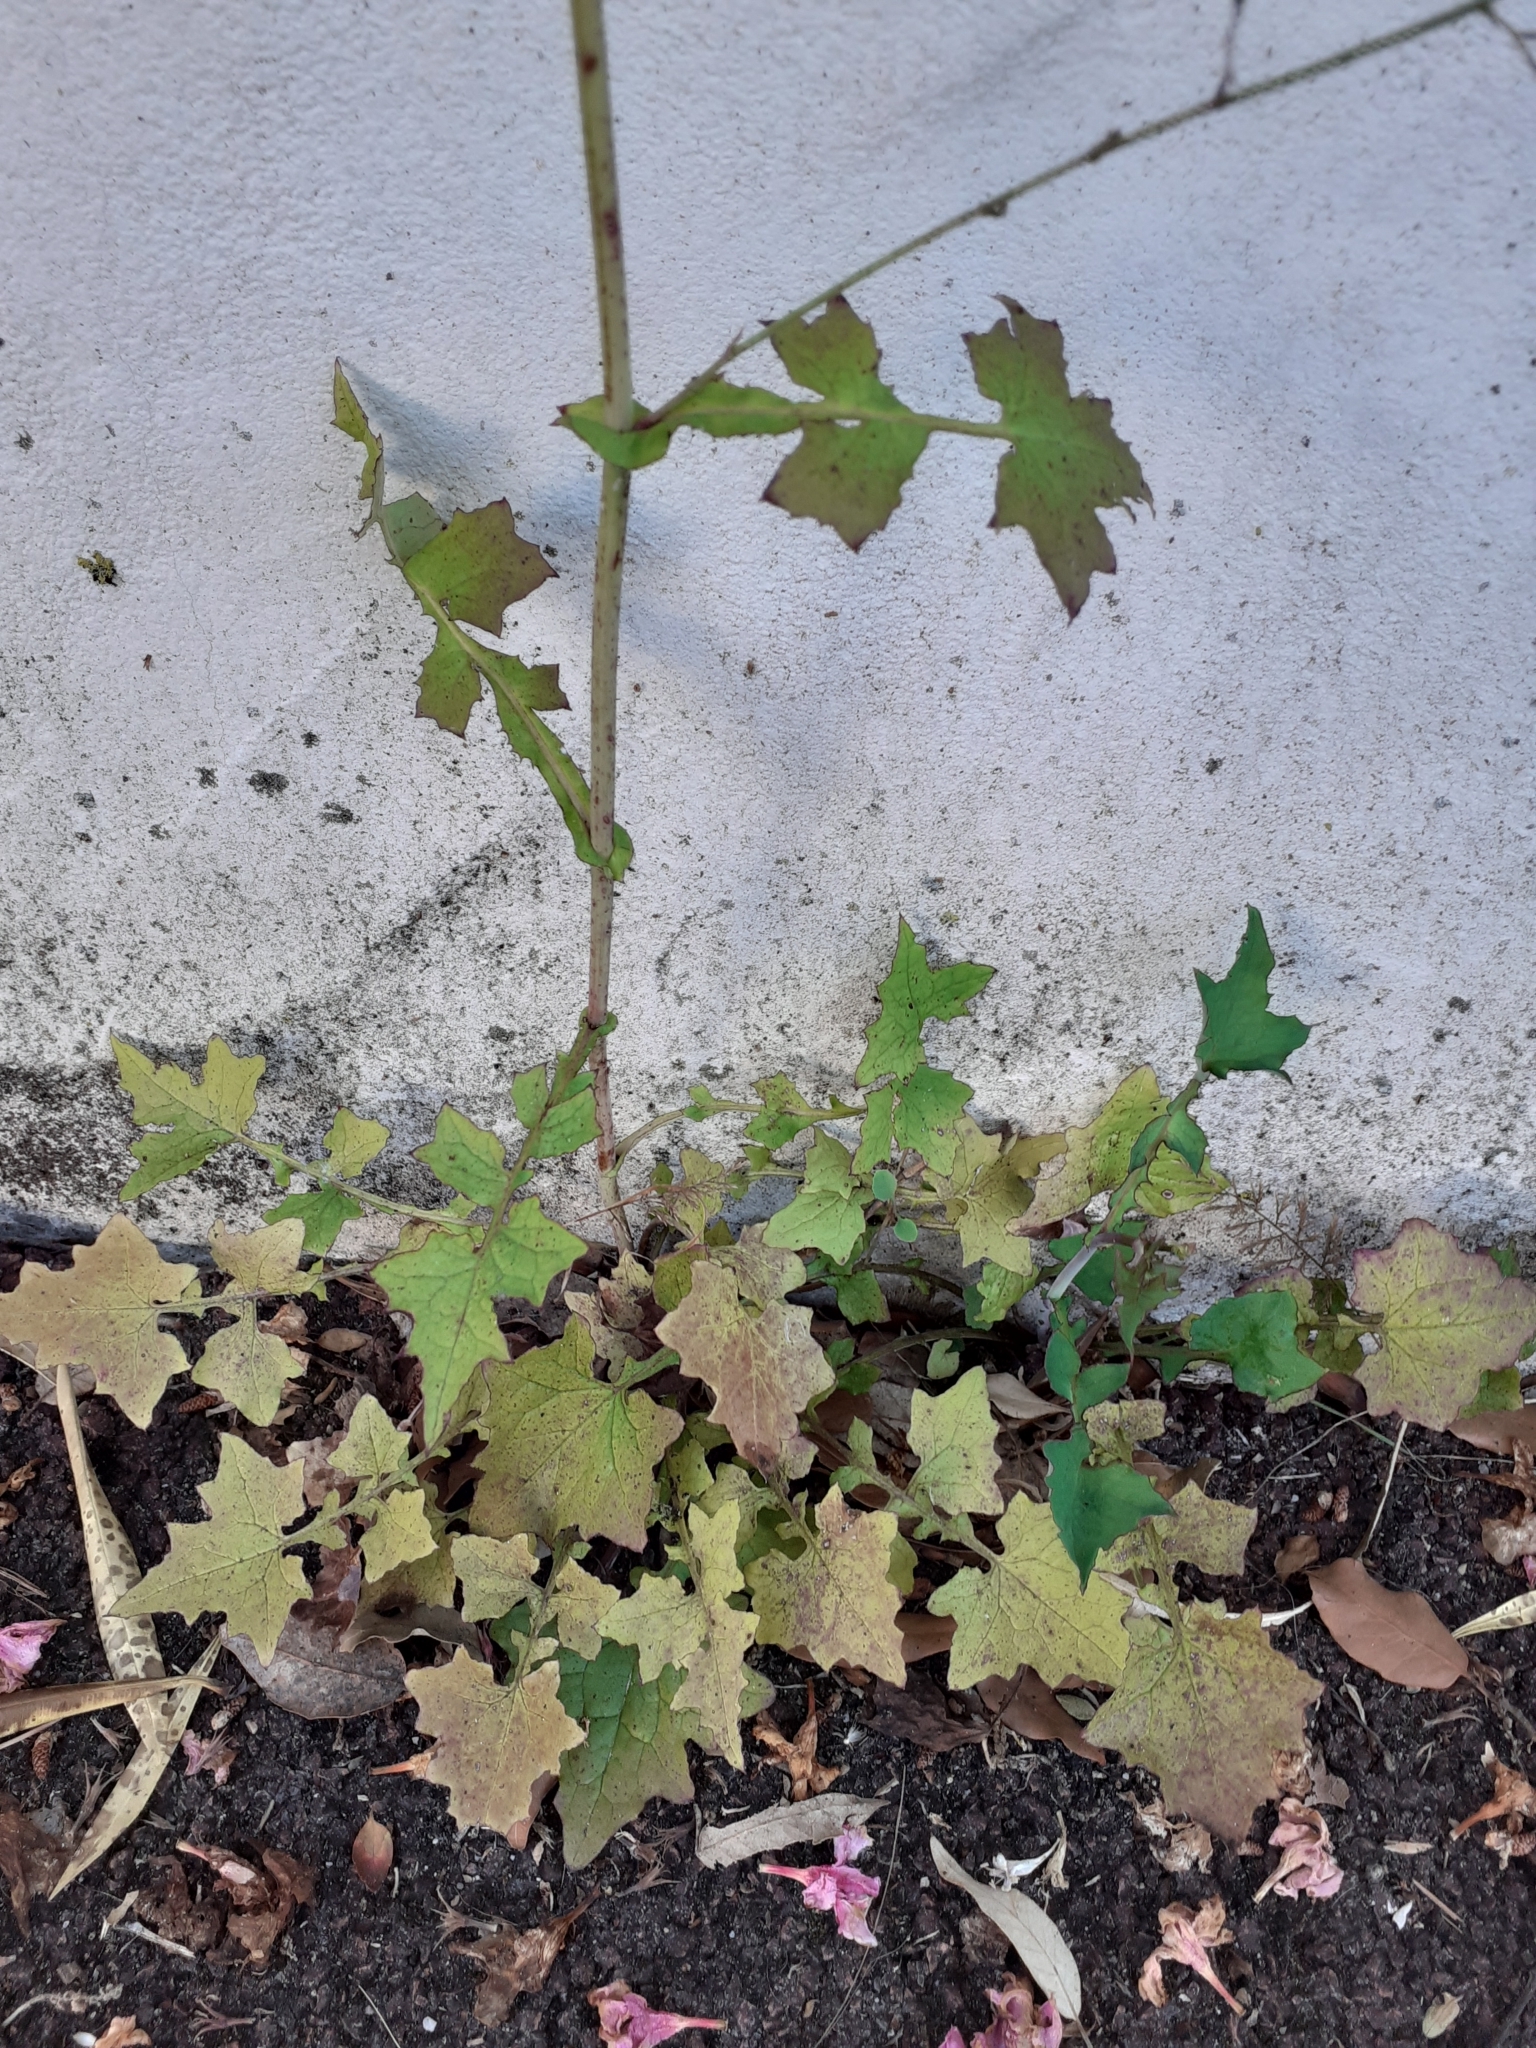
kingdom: Plantae
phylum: Tracheophyta
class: Magnoliopsida
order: Asterales
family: Asteraceae
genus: Mycelis
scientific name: Mycelis muralis
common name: Wall lettuce
